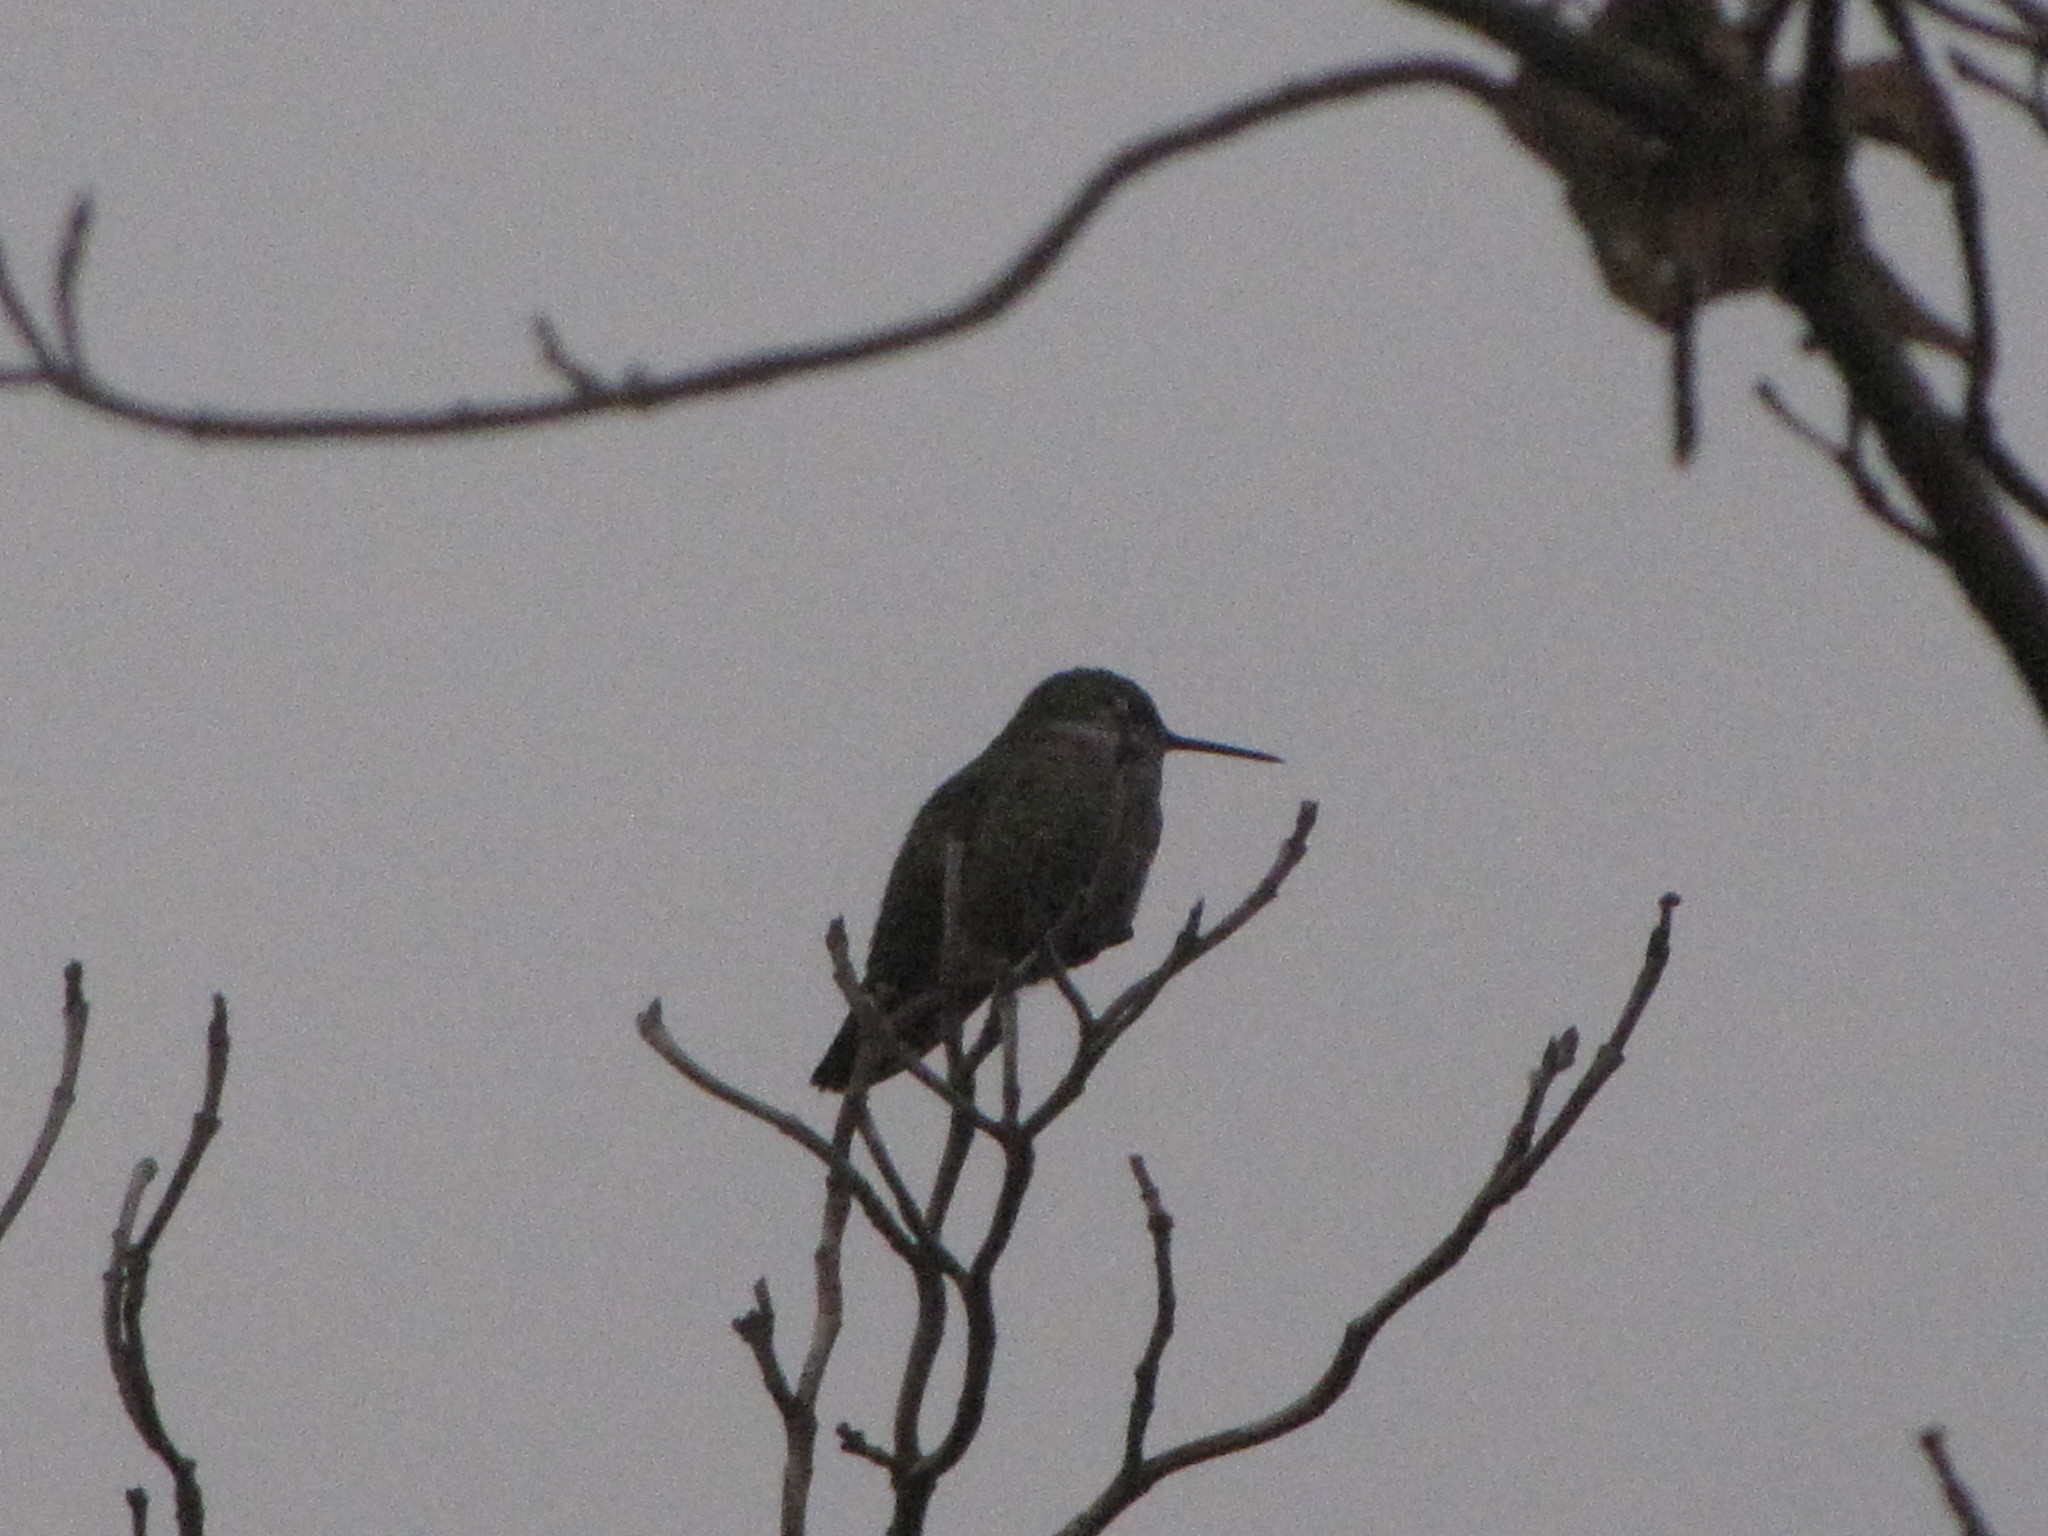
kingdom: Animalia
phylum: Chordata
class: Aves
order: Apodiformes
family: Trochilidae
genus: Calypte
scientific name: Calypte anna
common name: Anna's hummingbird
